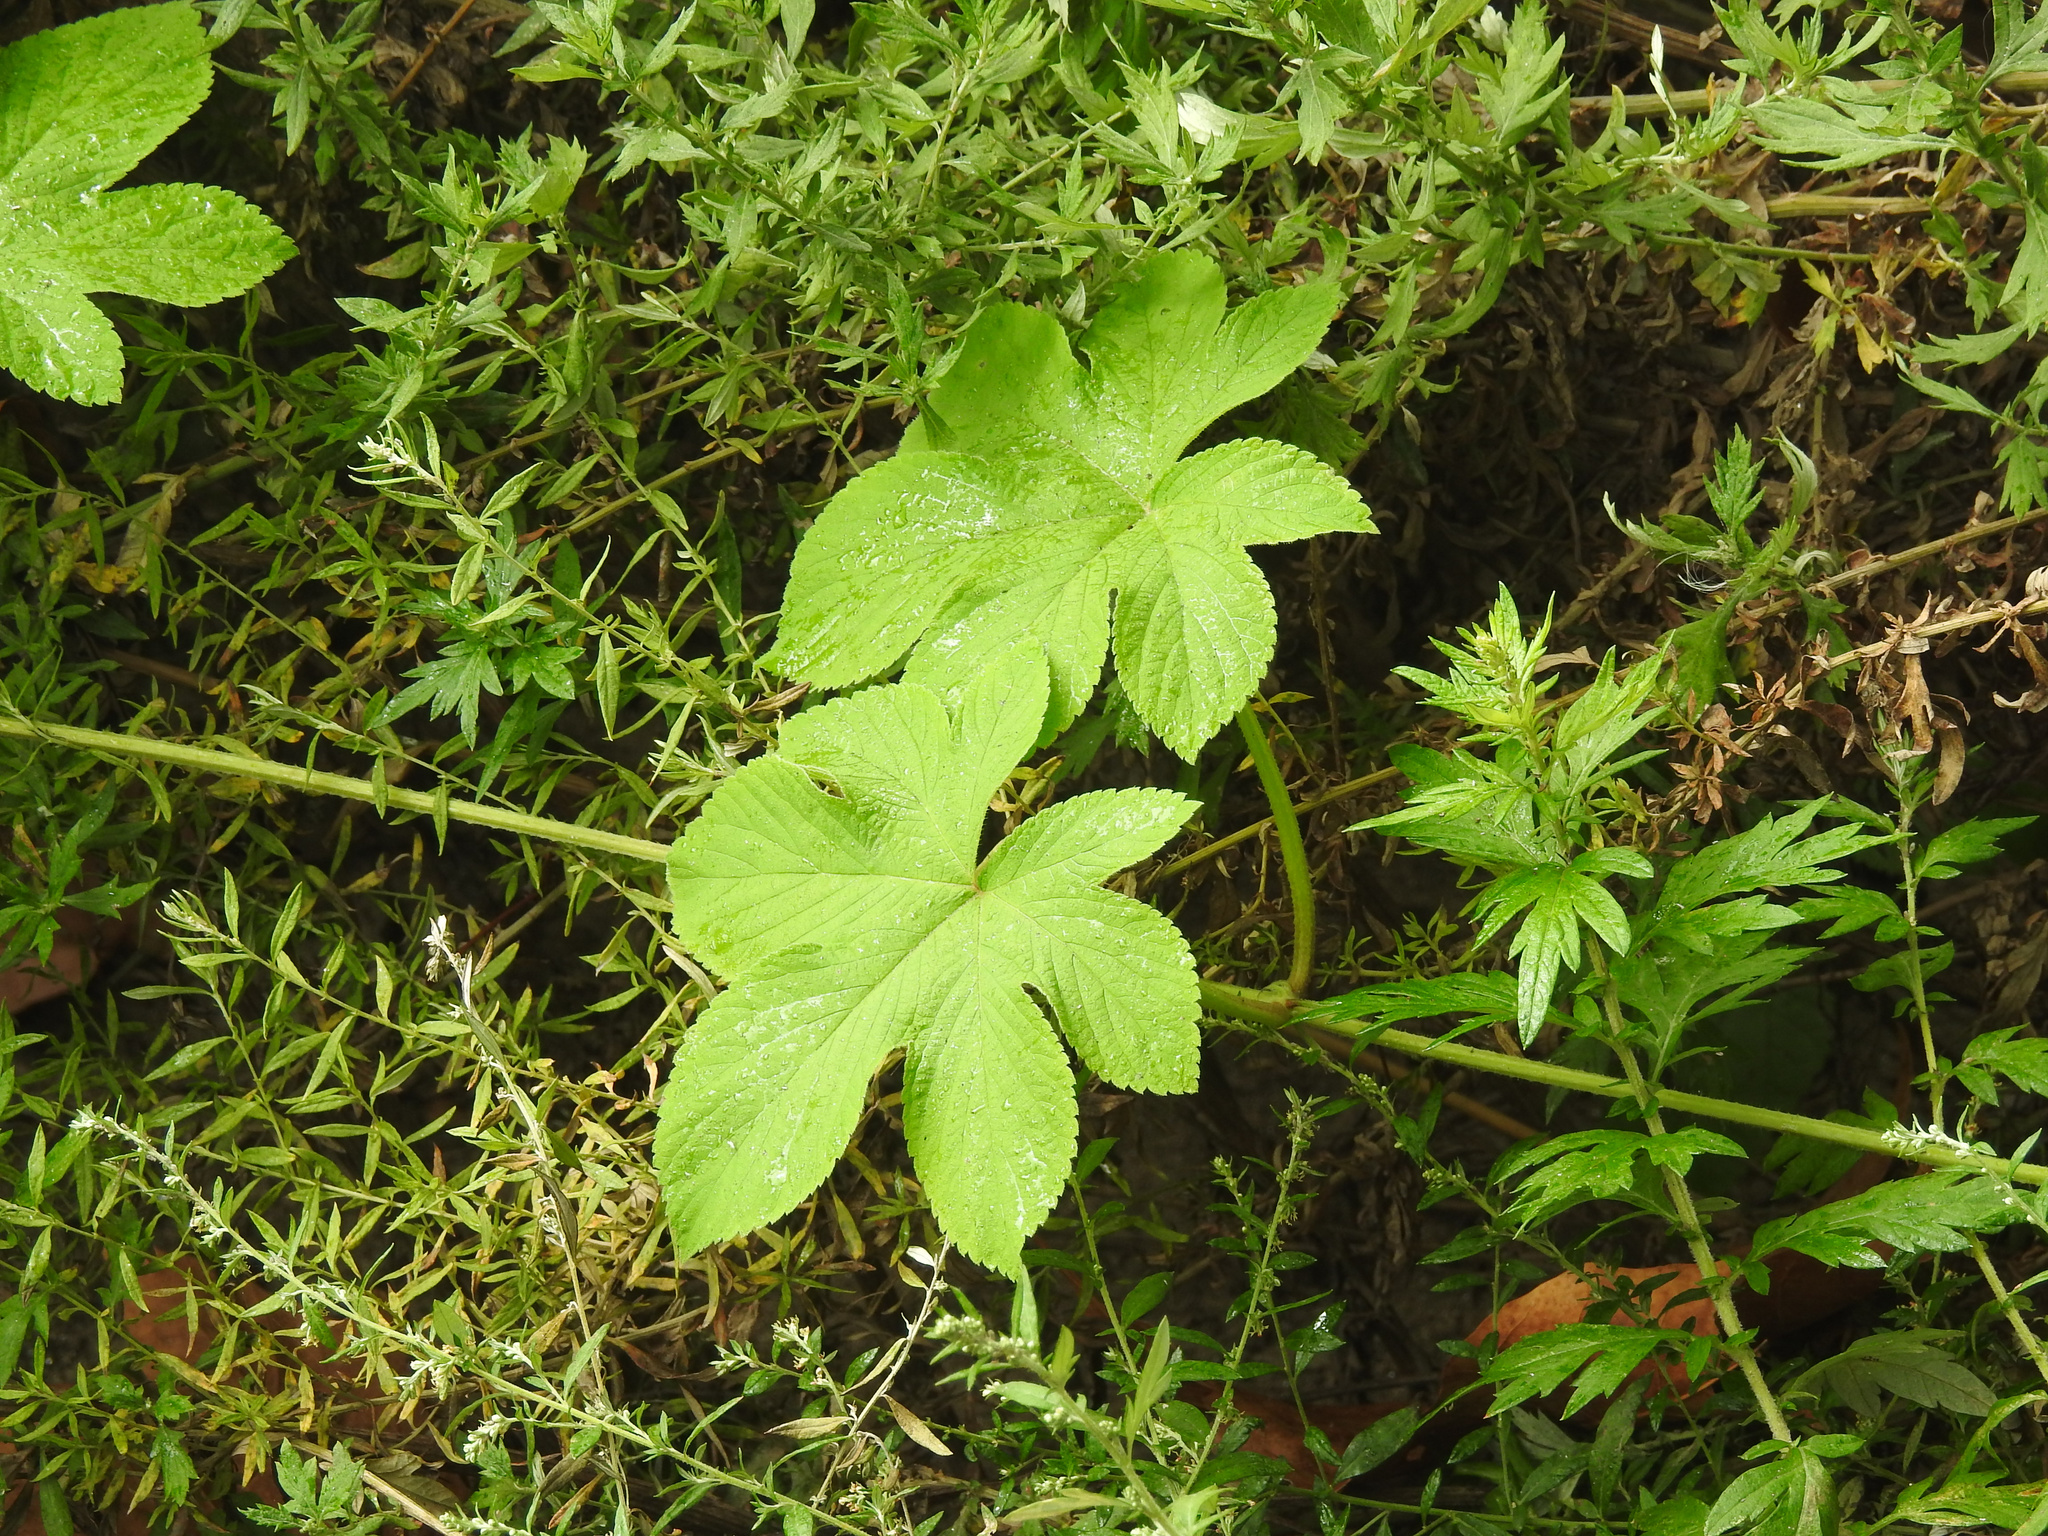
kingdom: Plantae
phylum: Tracheophyta
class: Magnoliopsida
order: Rosales
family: Cannabaceae
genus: Humulus
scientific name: Humulus scandens
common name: Japanese hop
